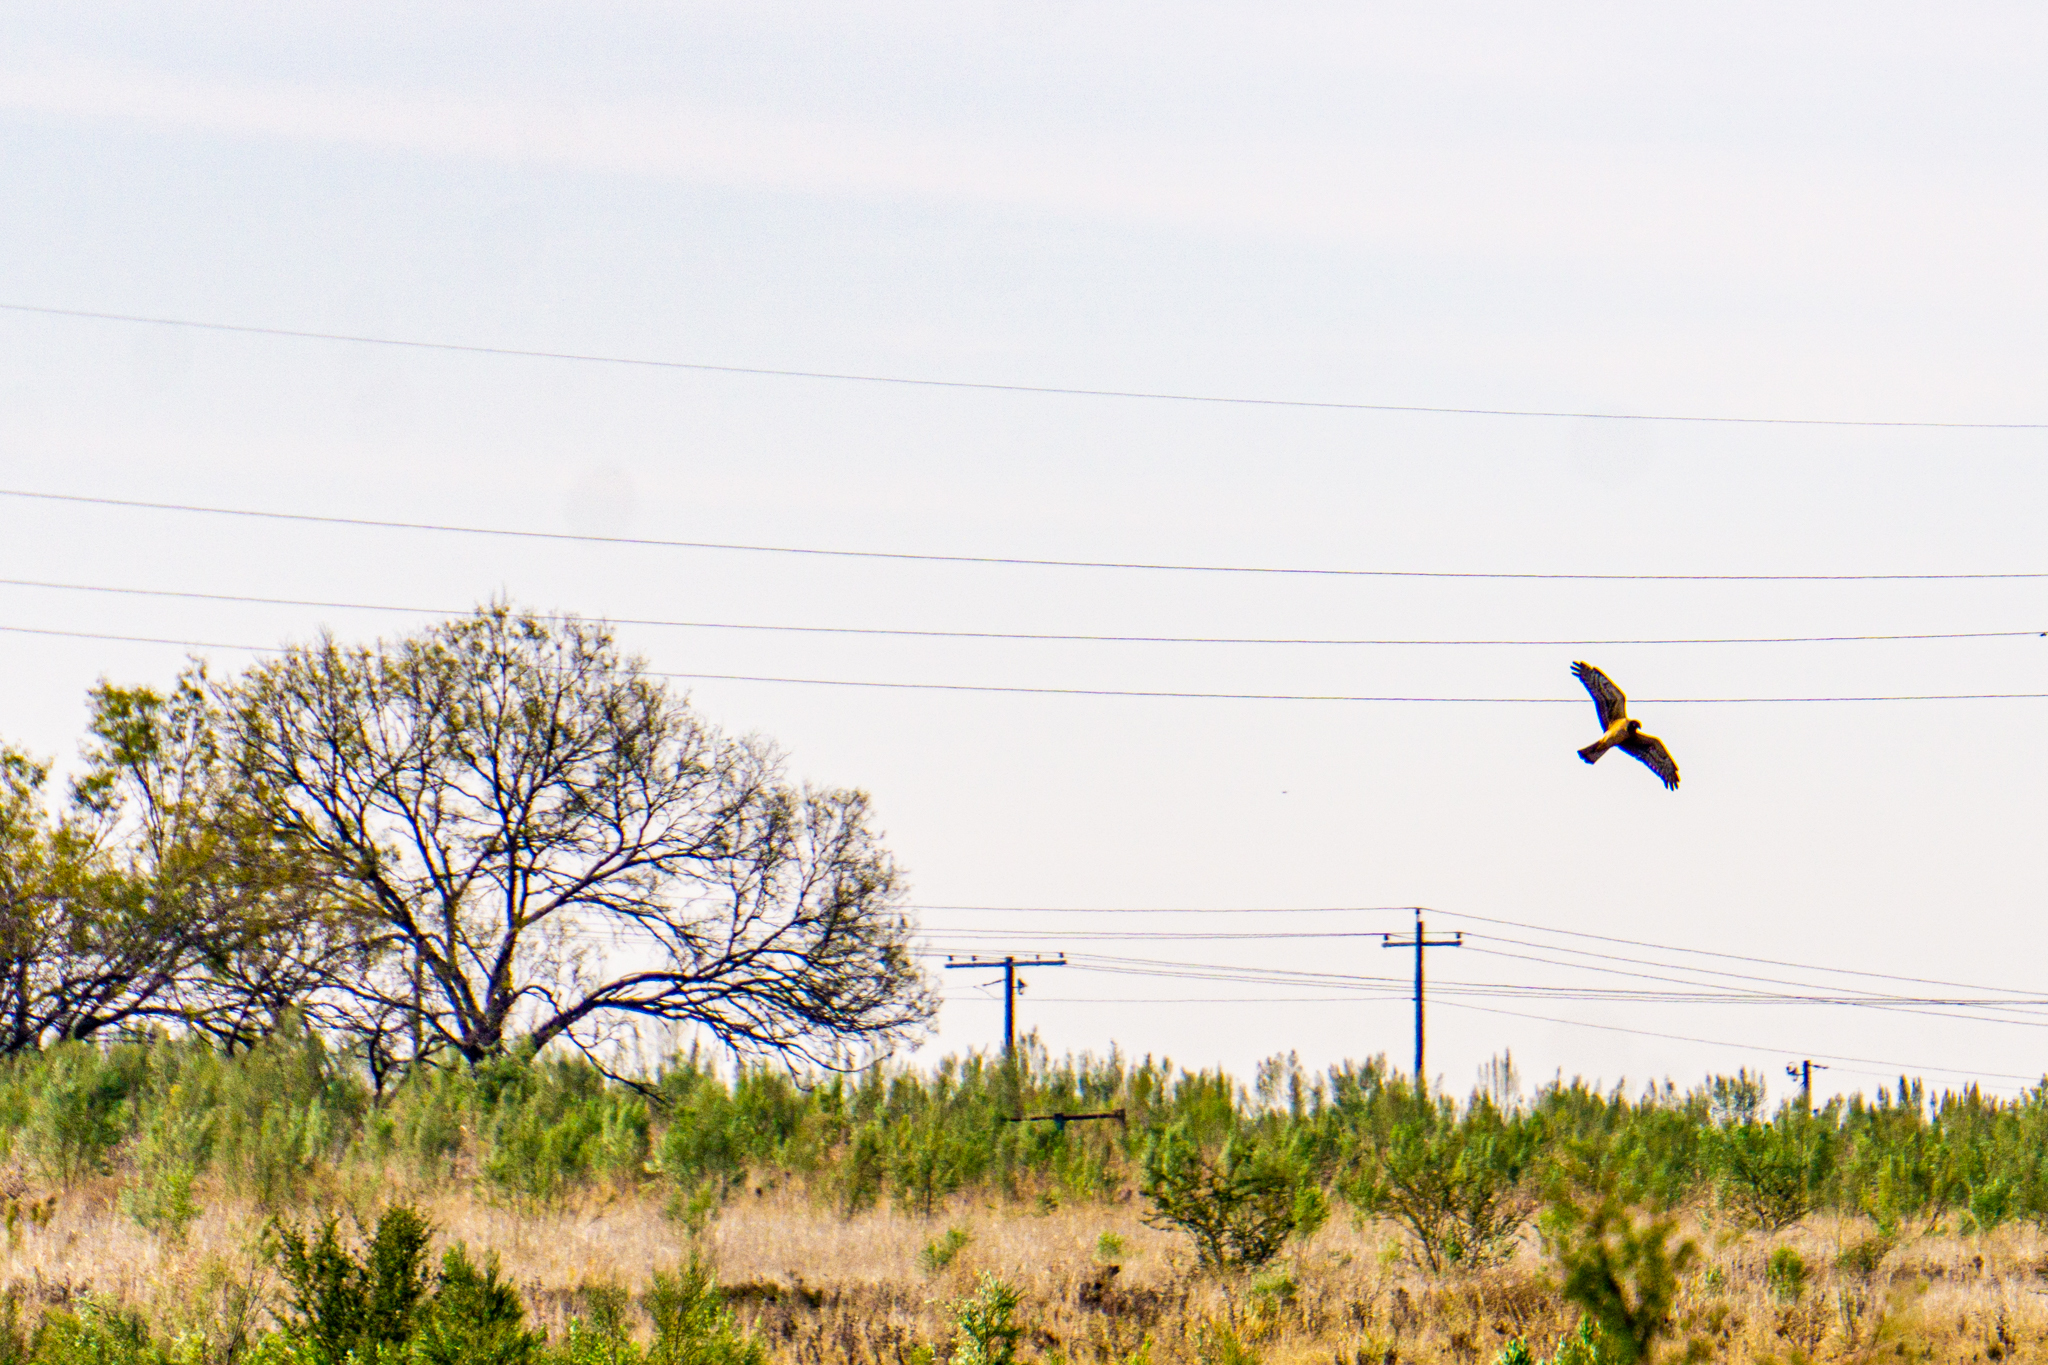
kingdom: Animalia
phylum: Chordata
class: Aves
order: Accipitriformes
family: Accipitridae
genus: Circus
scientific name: Circus cyaneus
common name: Hen harrier
